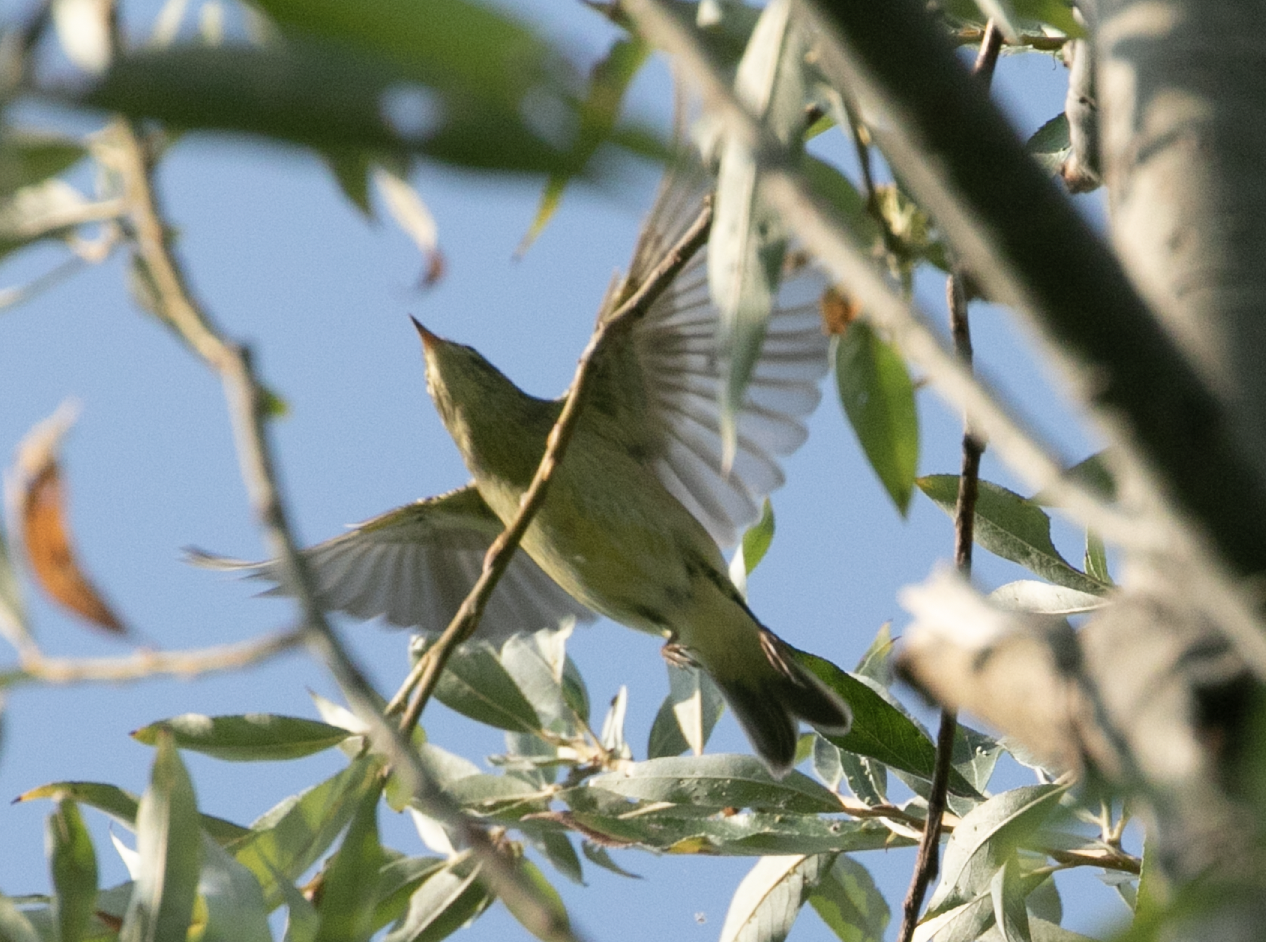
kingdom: Animalia
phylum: Chordata
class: Aves
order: Passeriformes
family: Phylloscopidae
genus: Phylloscopus
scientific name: Phylloscopus trochilus
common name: Willow warbler
